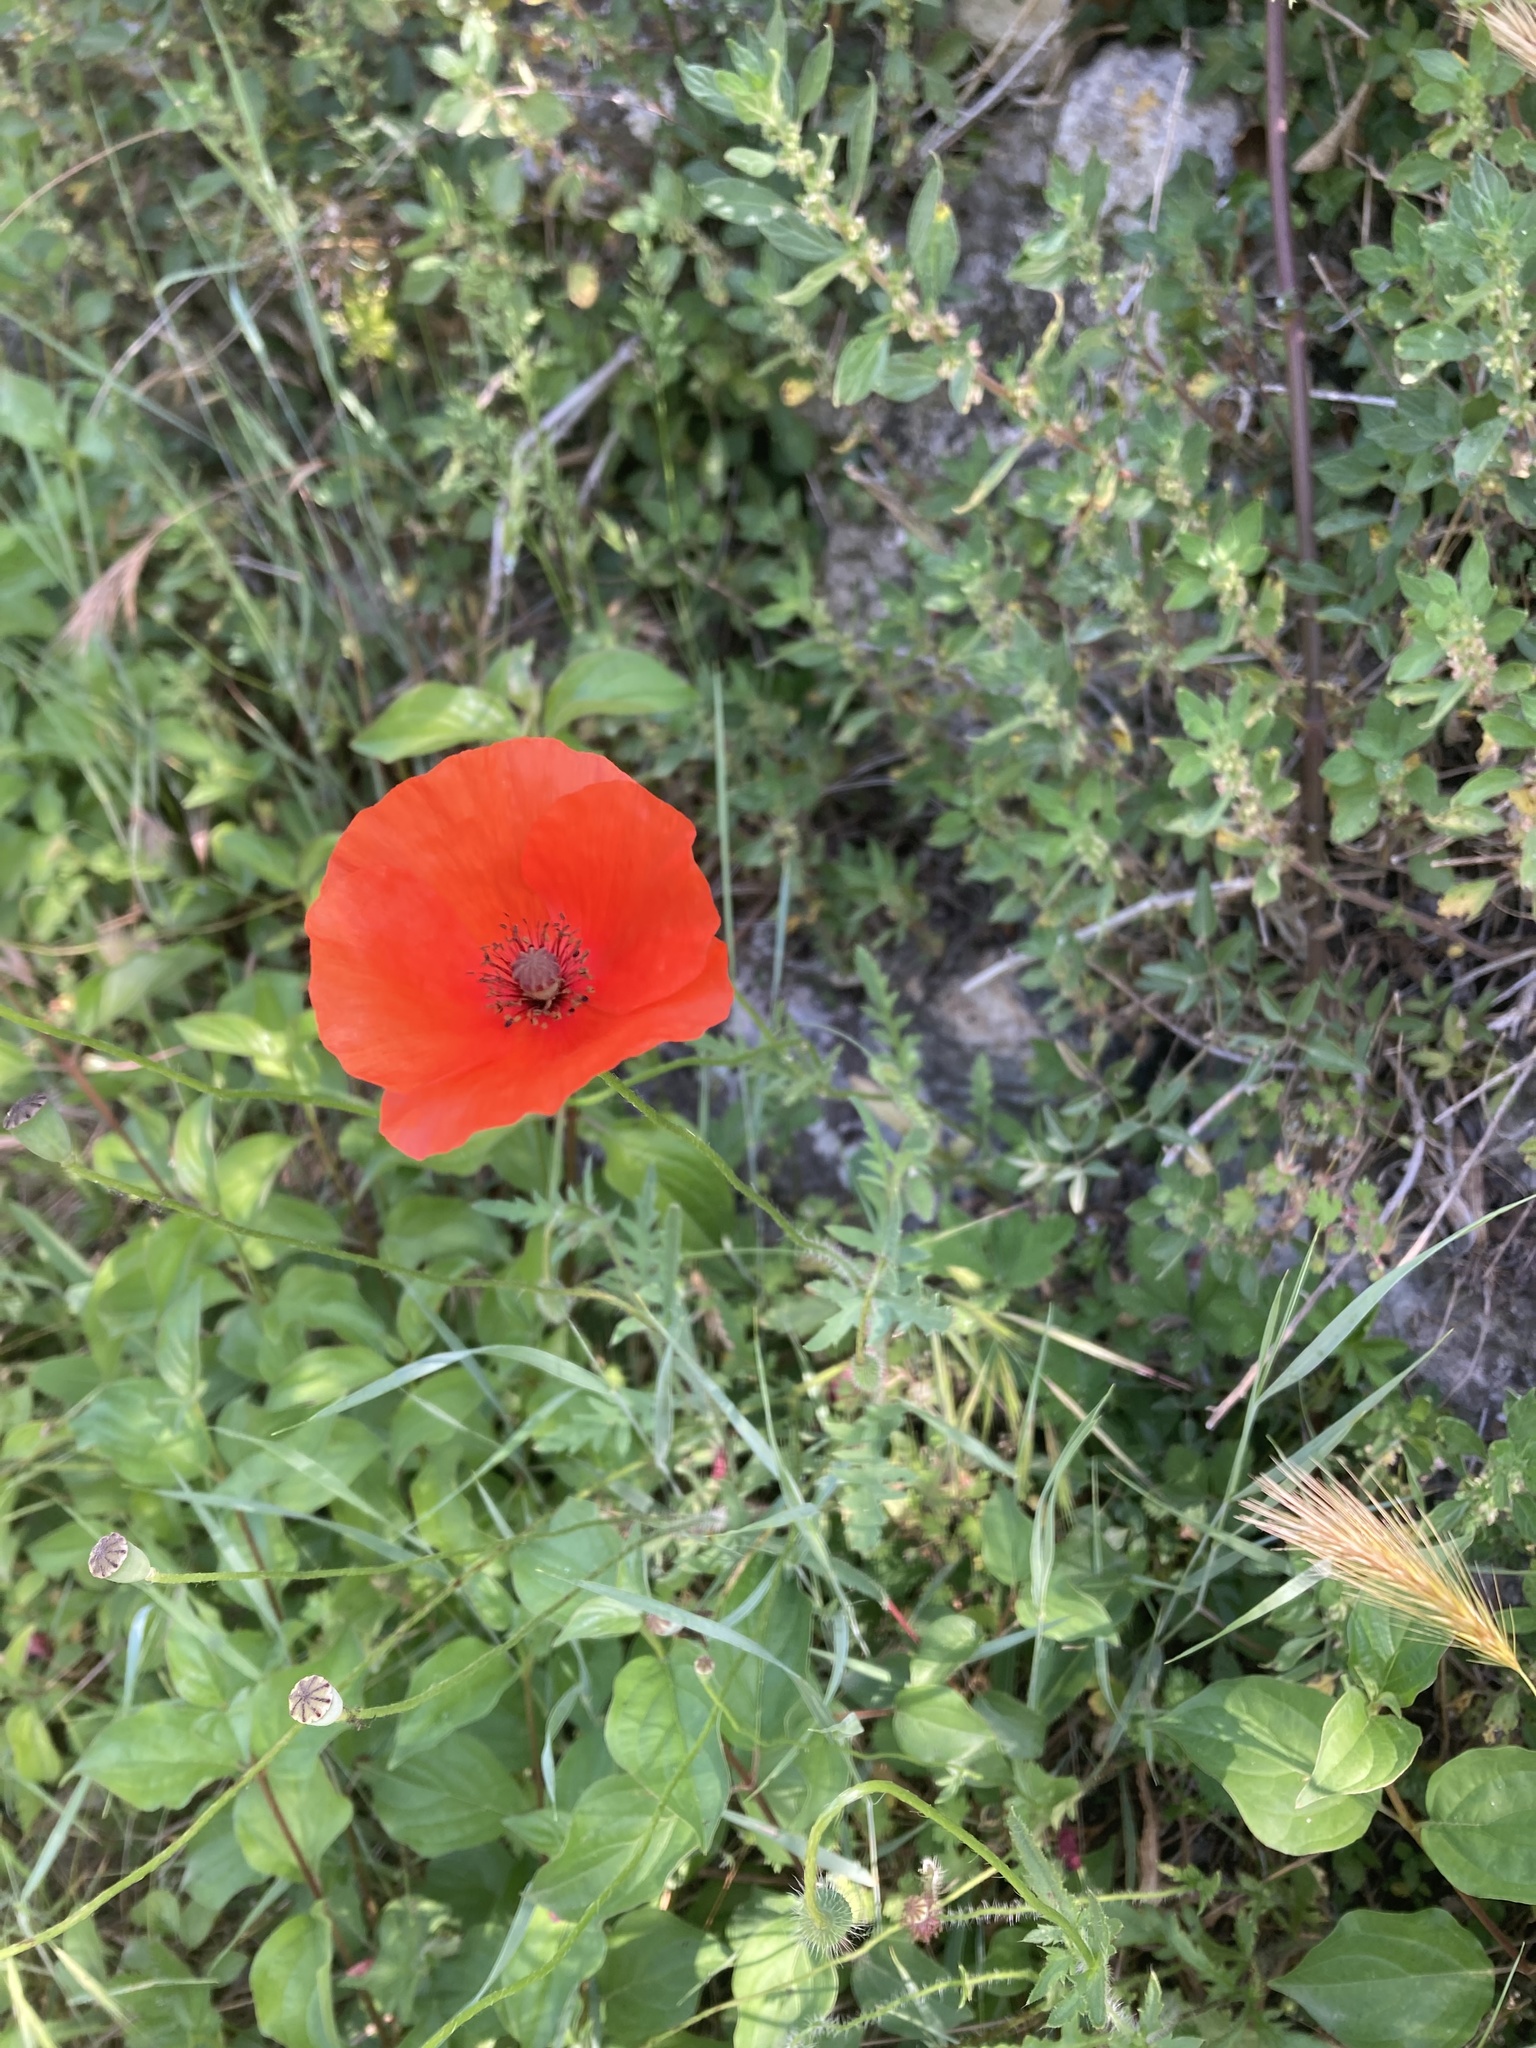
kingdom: Plantae
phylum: Tracheophyta
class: Magnoliopsida
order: Ranunculales
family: Papaveraceae
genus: Papaver
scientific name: Papaver rhoeas
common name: Corn poppy
